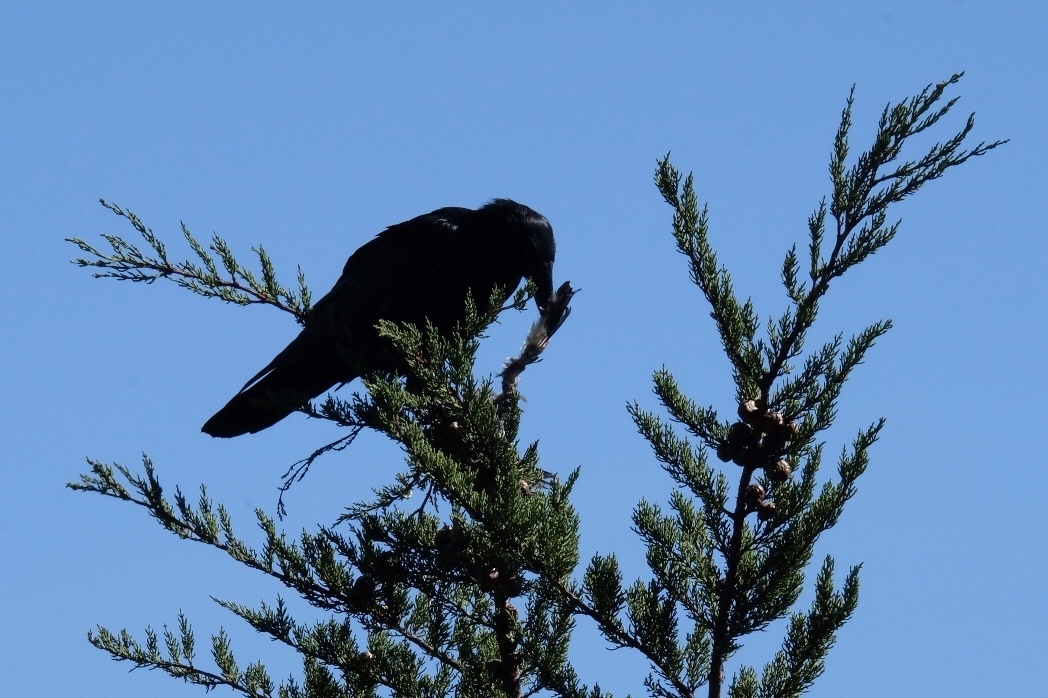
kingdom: Animalia
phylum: Chordata
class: Aves
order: Passeriformes
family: Corvidae
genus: Corvus
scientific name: Corvus corax
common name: Common raven
